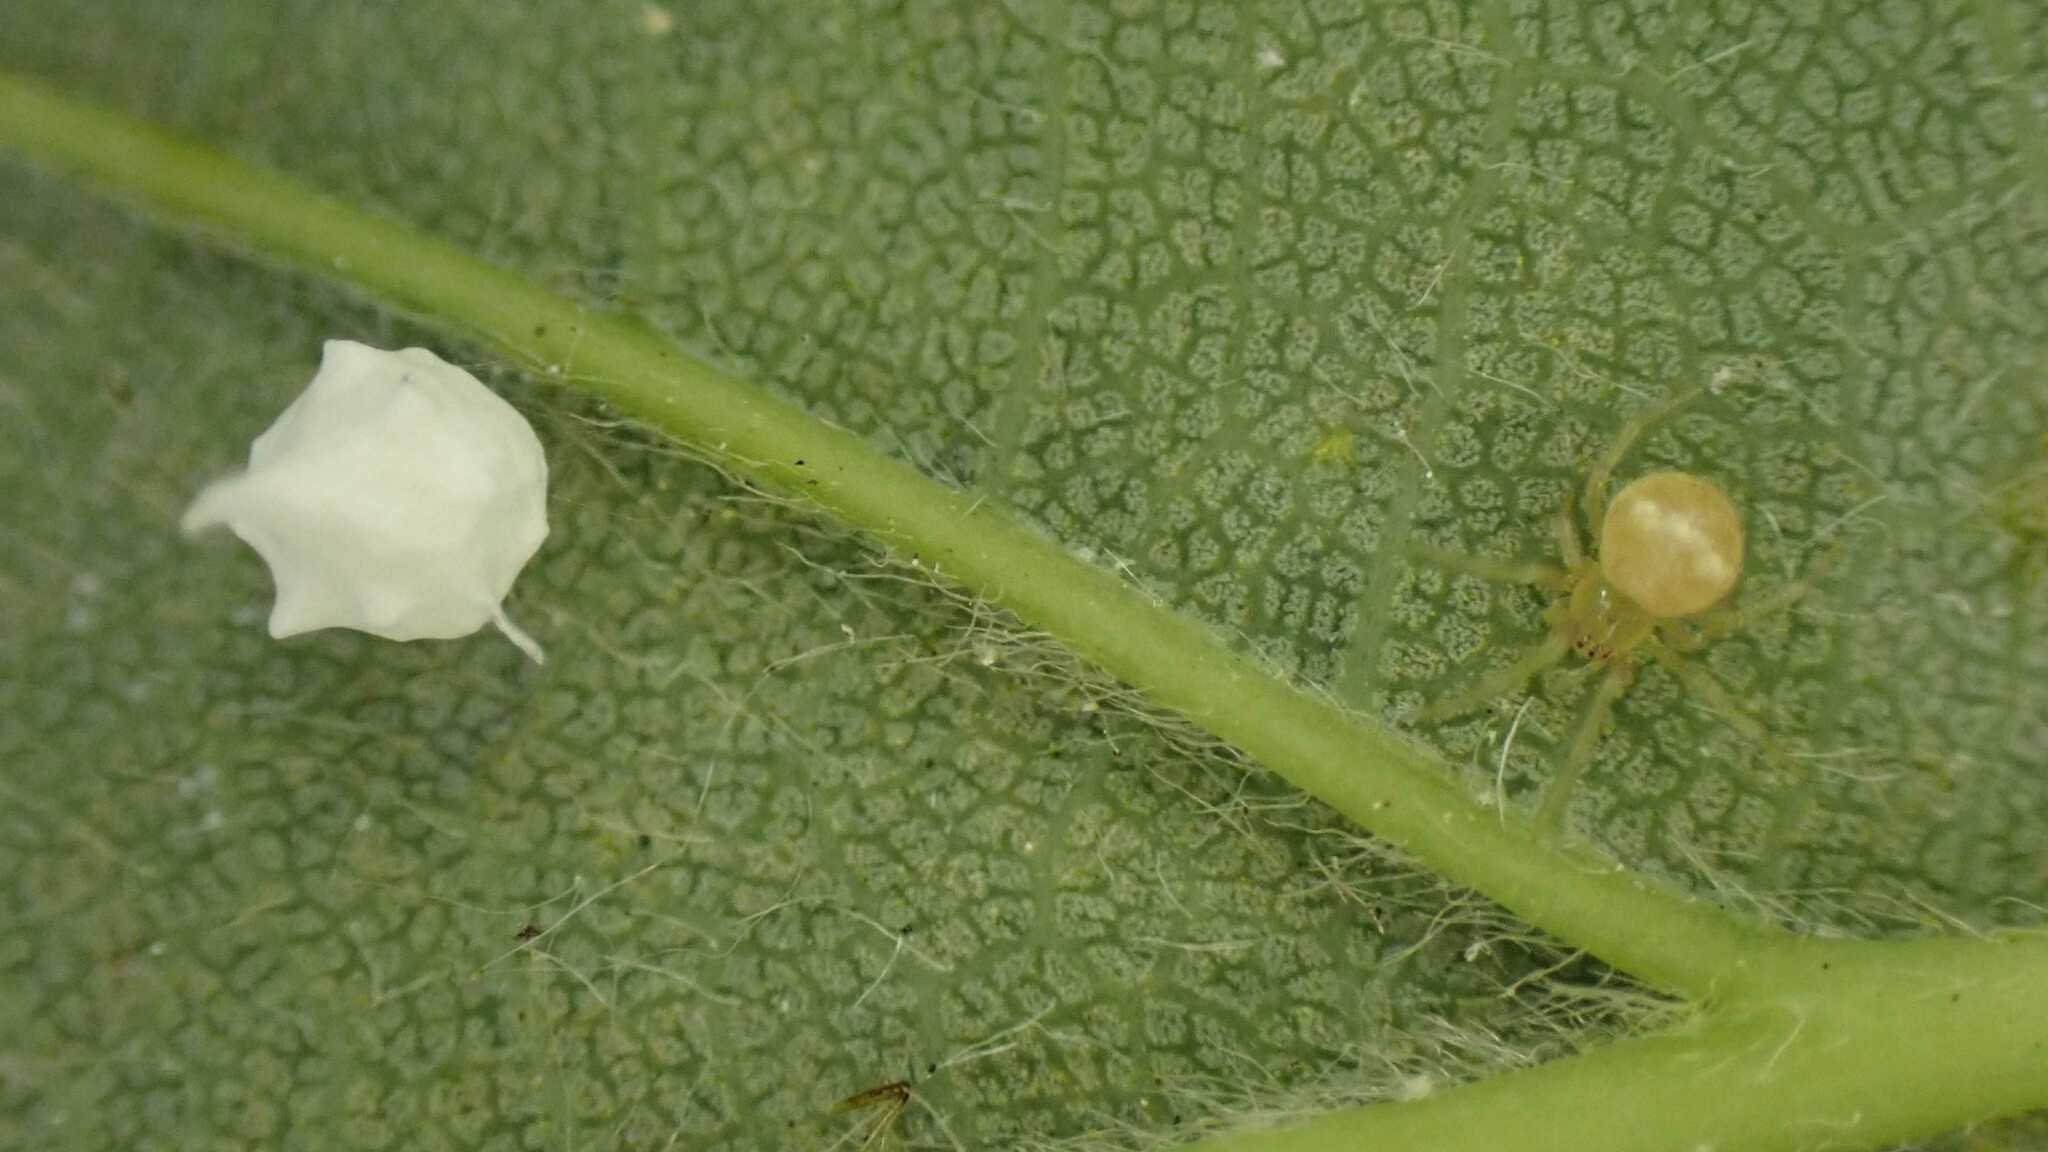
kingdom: Animalia
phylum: Arthropoda
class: Arachnida
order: Araneae
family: Theridiidae
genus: Paidiscura
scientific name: Paidiscura pallens
